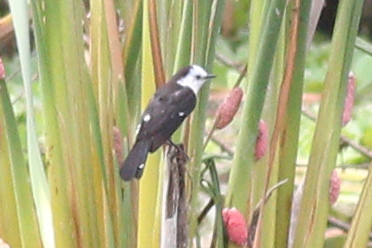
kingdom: Animalia
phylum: Chordata
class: Aves
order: Passeriformes
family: Tyrannidae
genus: Fluvicola
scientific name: Fluvicola pica
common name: Pied water-tyrant
